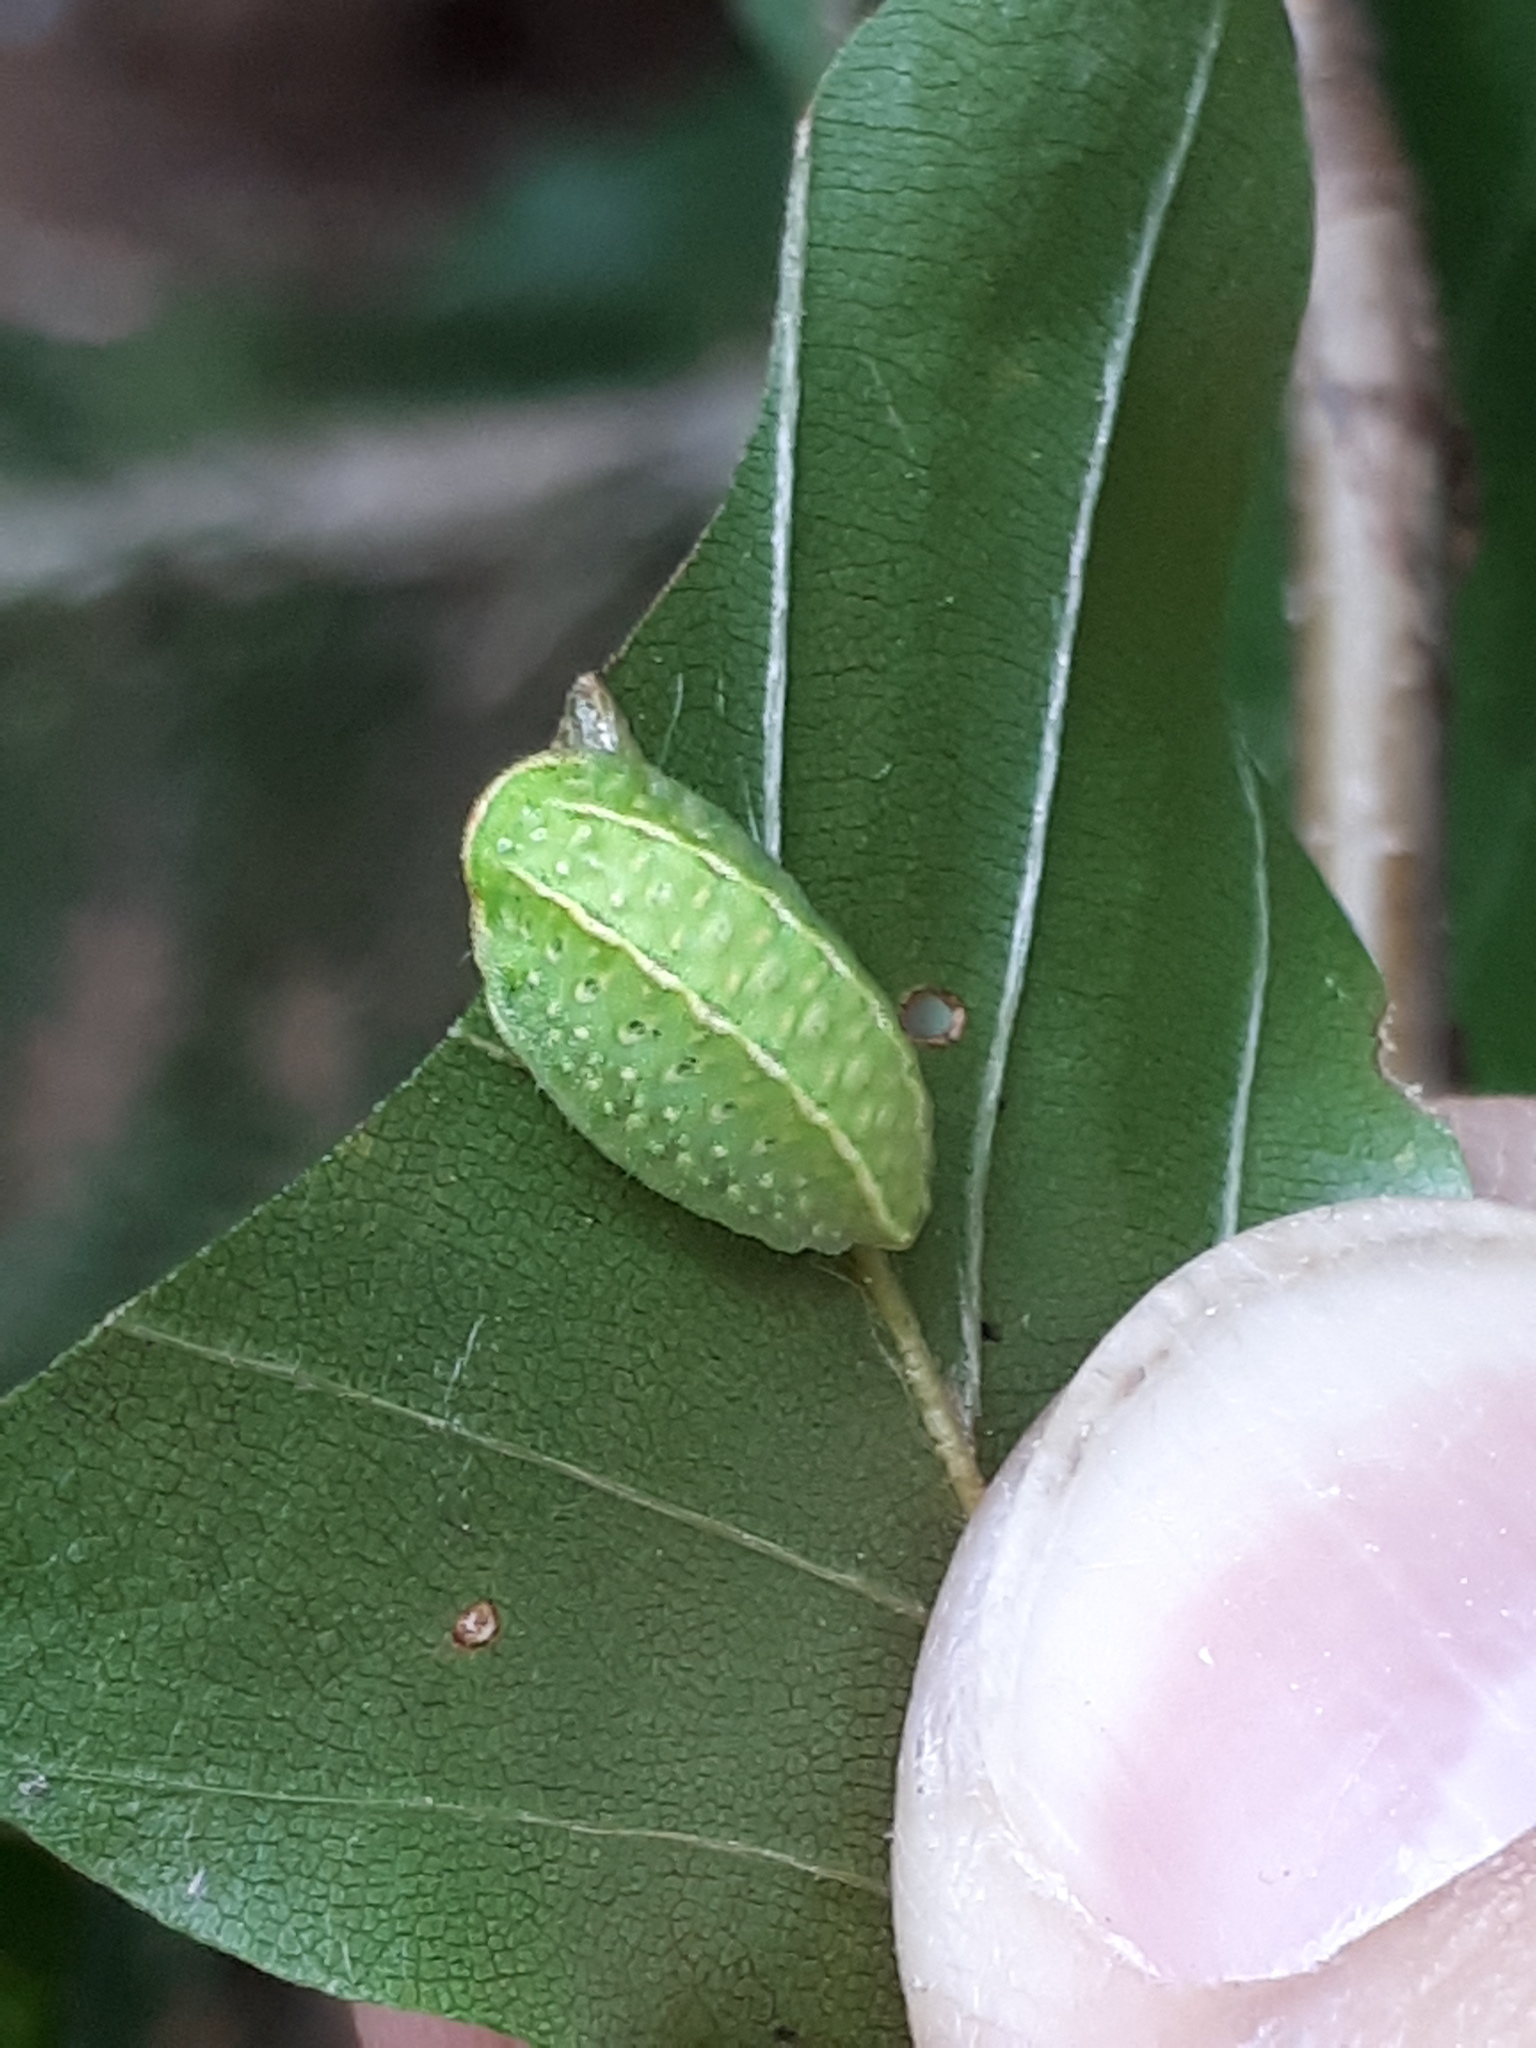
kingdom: Animalia
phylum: Arthropoda
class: Insecta
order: Lepidoptera
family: Limacodidae
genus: Apoda
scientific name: Apoda limacodes
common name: Festoon
